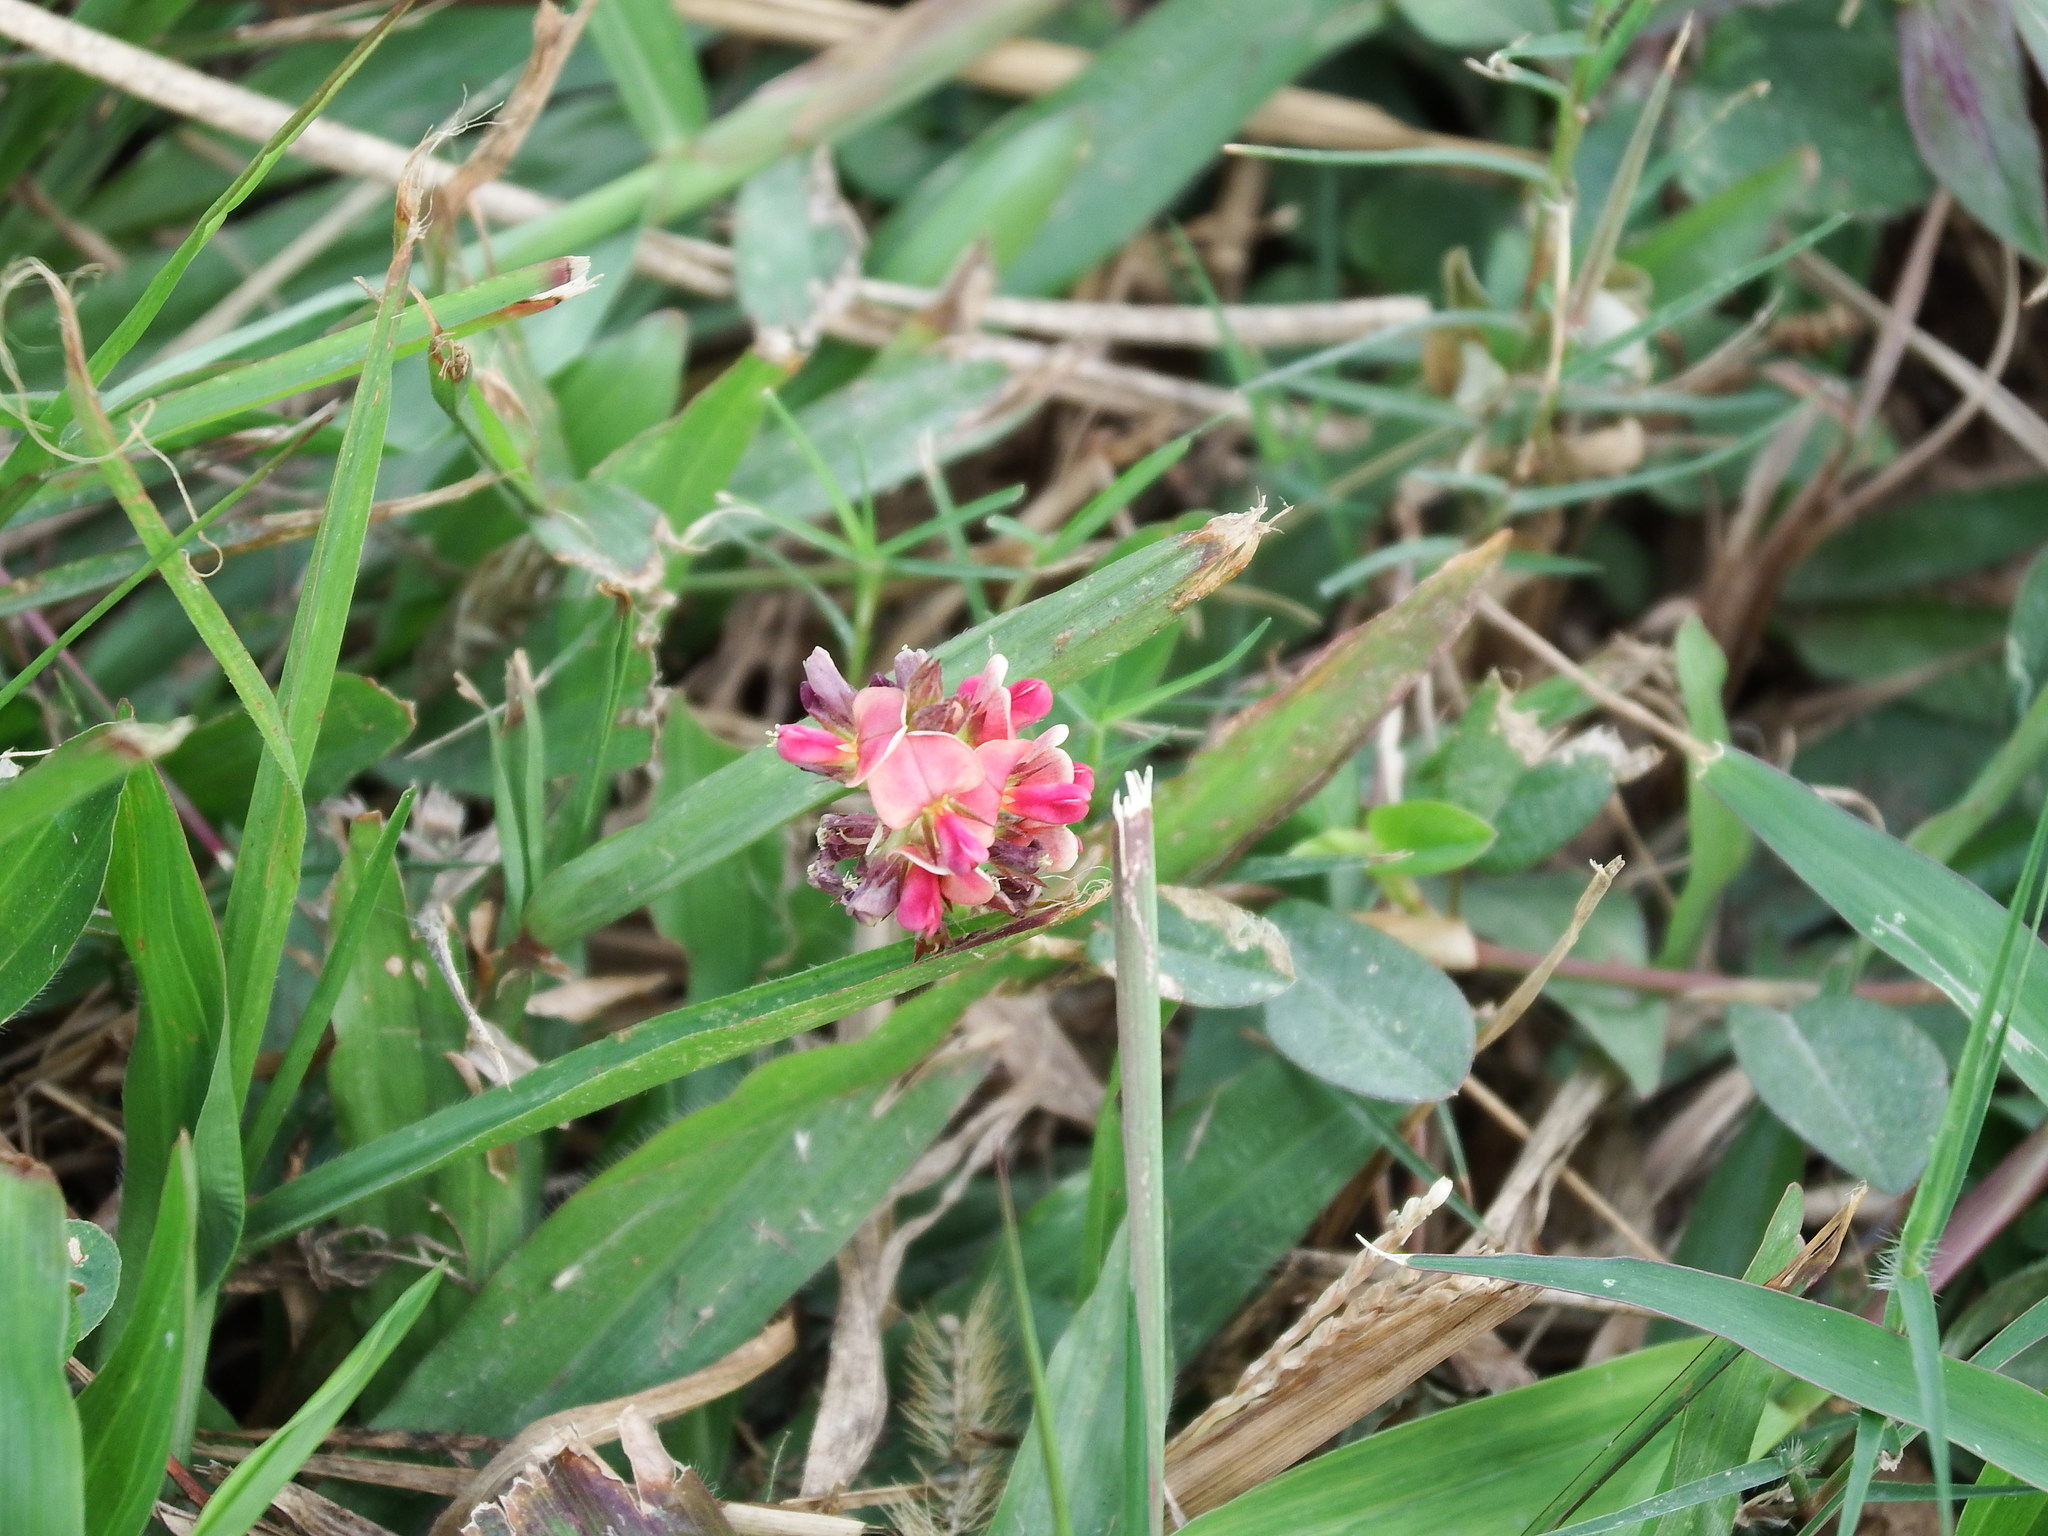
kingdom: Plantae
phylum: Tracheophyta
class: Magnoliopsida
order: Fabales
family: Fabaceae
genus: Alysicarpus
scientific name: Alysicarpus vaginalis
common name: White moneywort
